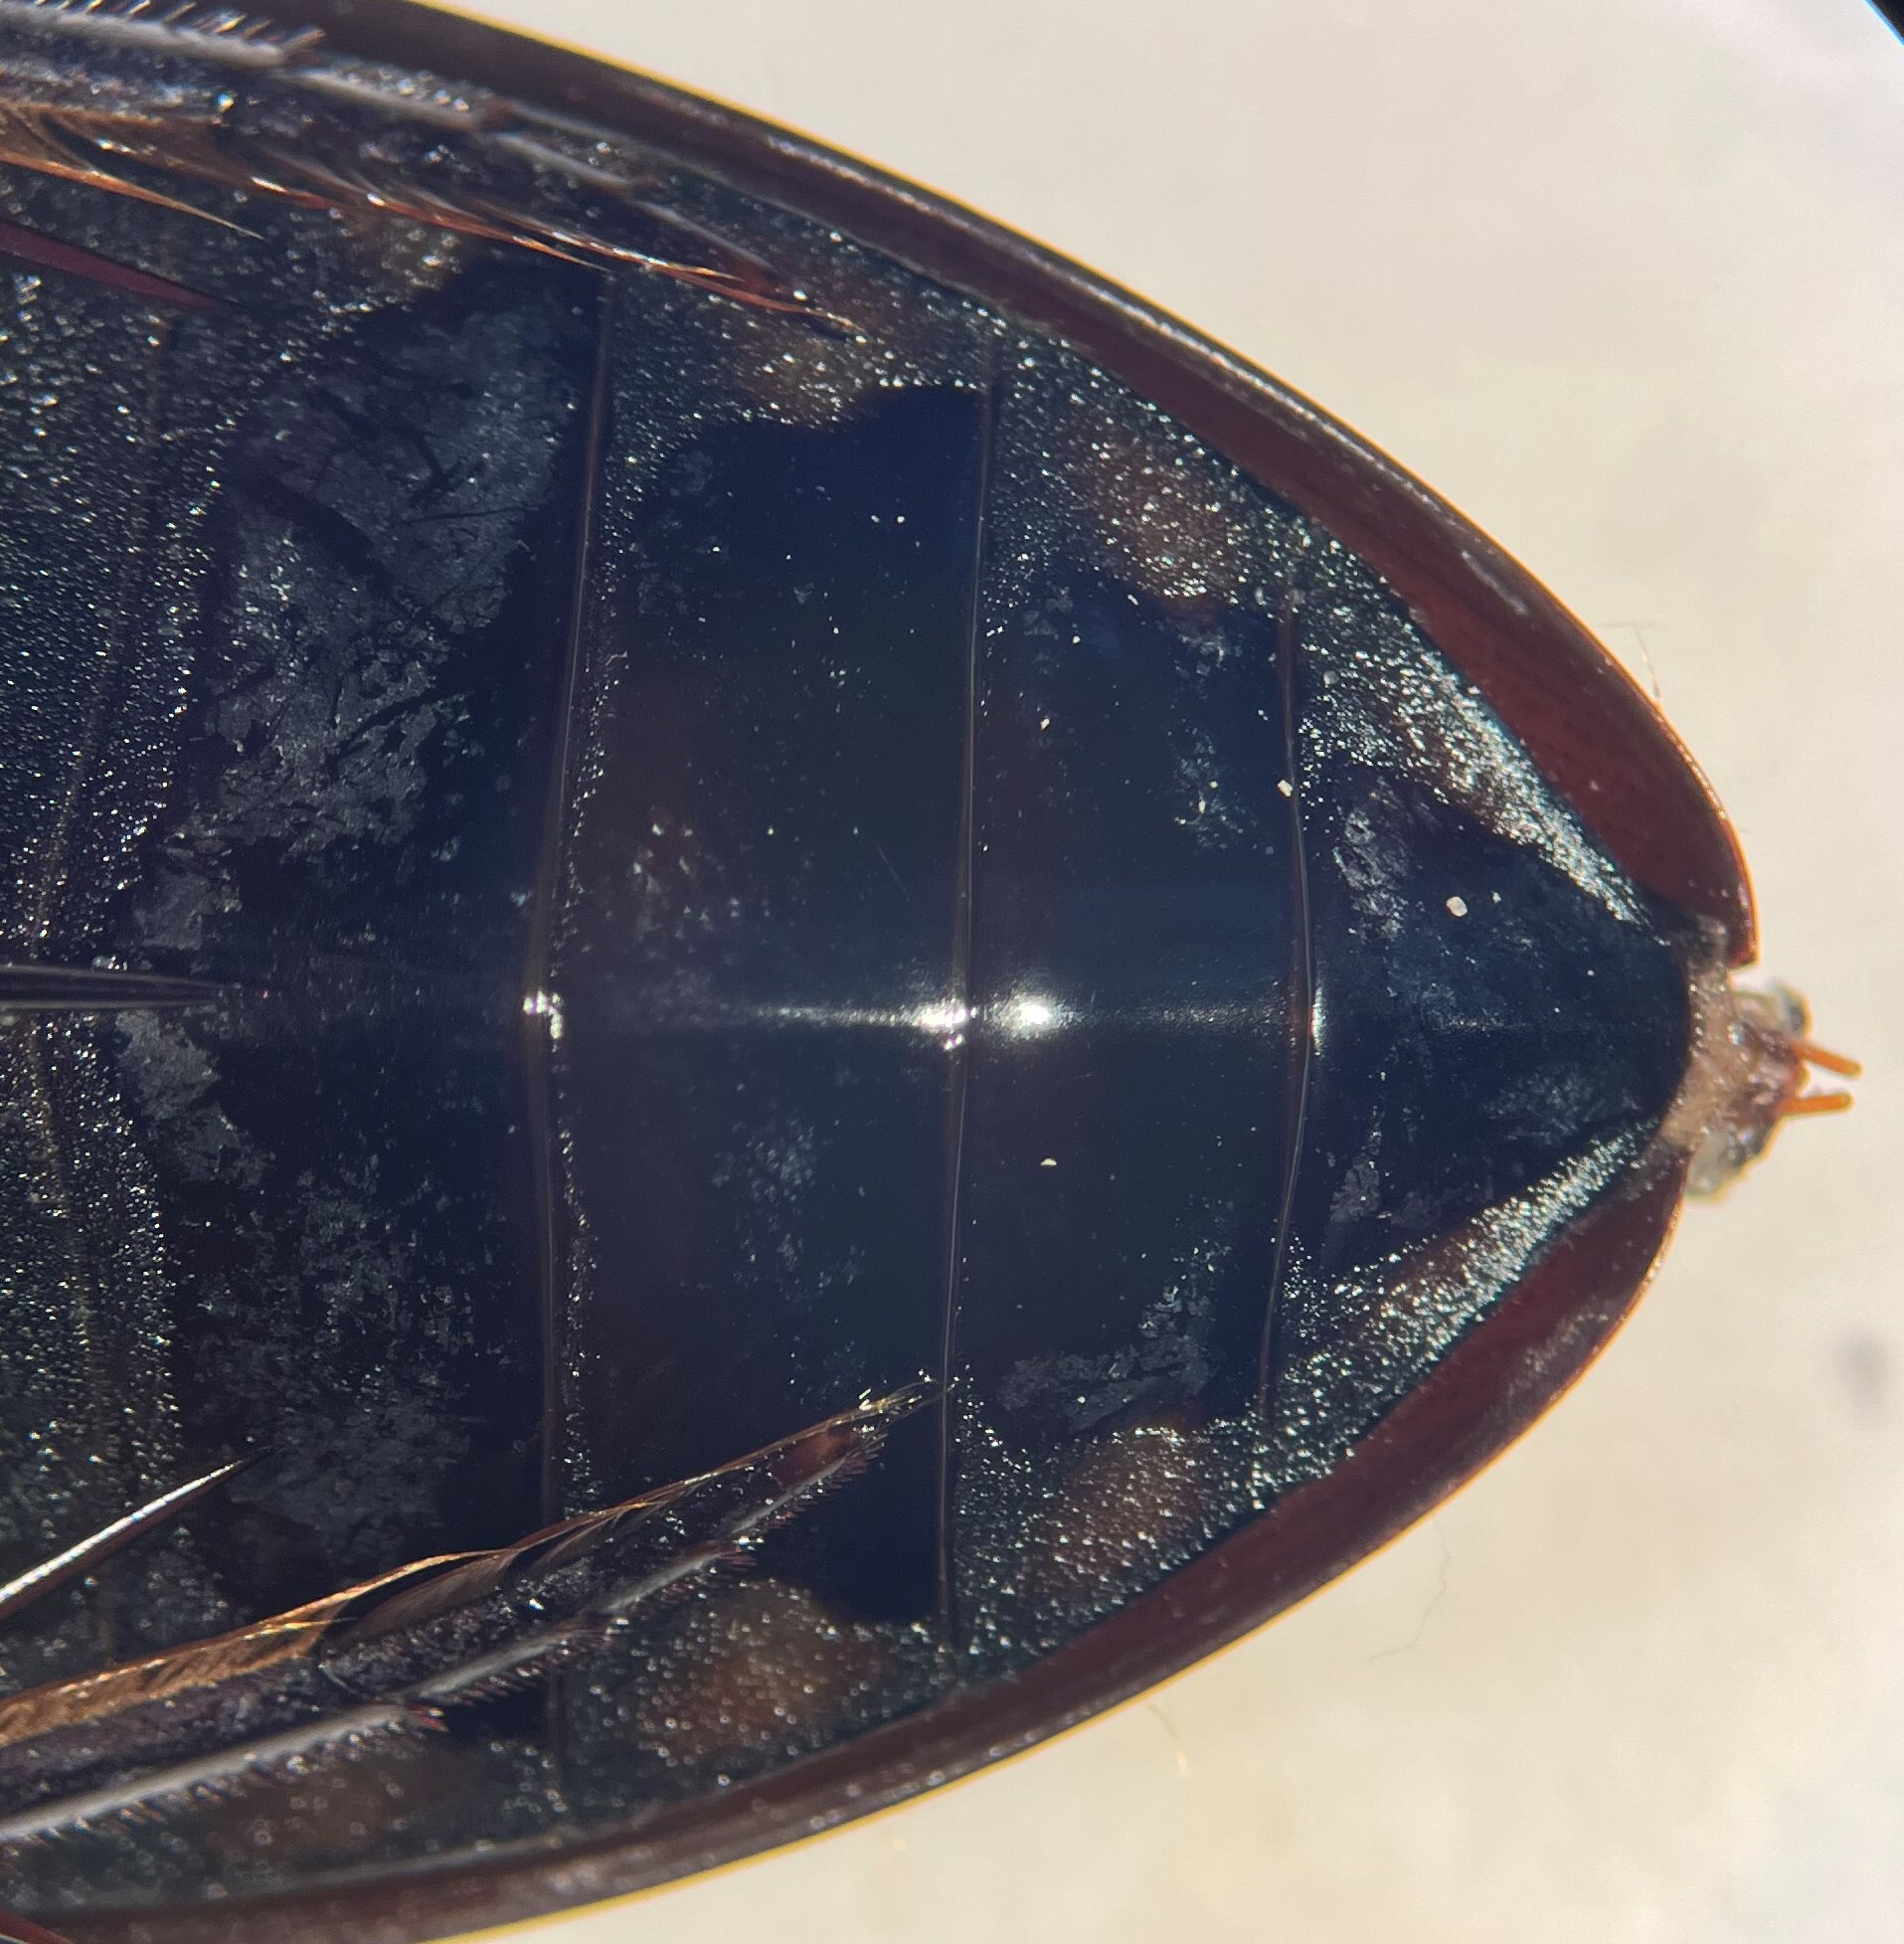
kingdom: Animalia
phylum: Arthropoda
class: Insecta
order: Coleoptera
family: Hydrophilidae
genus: Hydrophilus
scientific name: Hydrophilus triangularis
